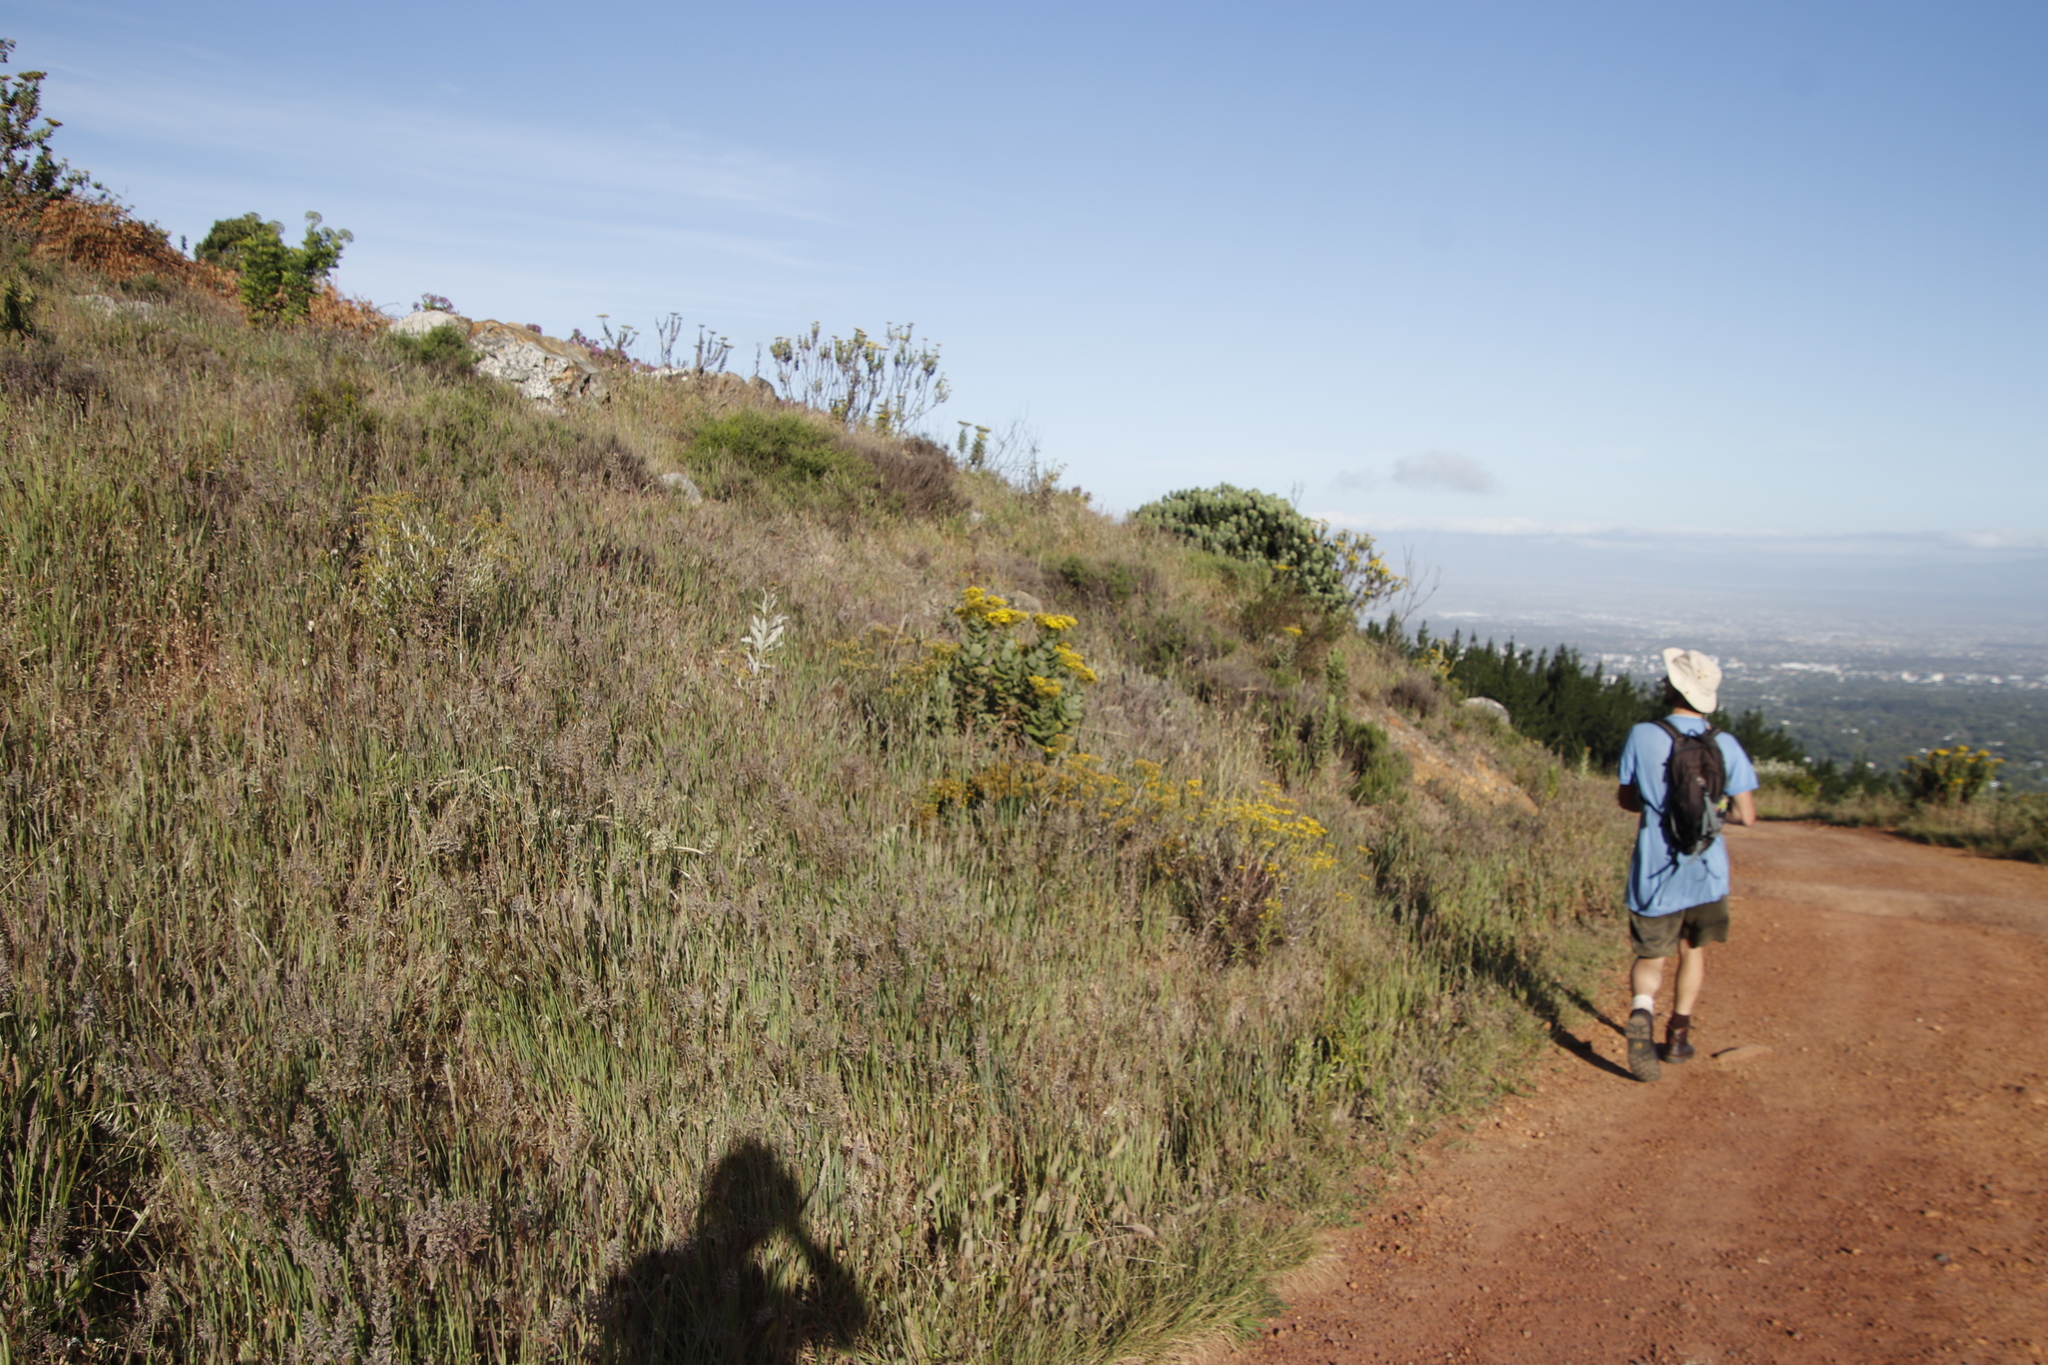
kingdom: Plantae
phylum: Tracheophyta
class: Magnoliopsida
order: Asterales
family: Asteraceae
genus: Senecio
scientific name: Senecio rigidus
